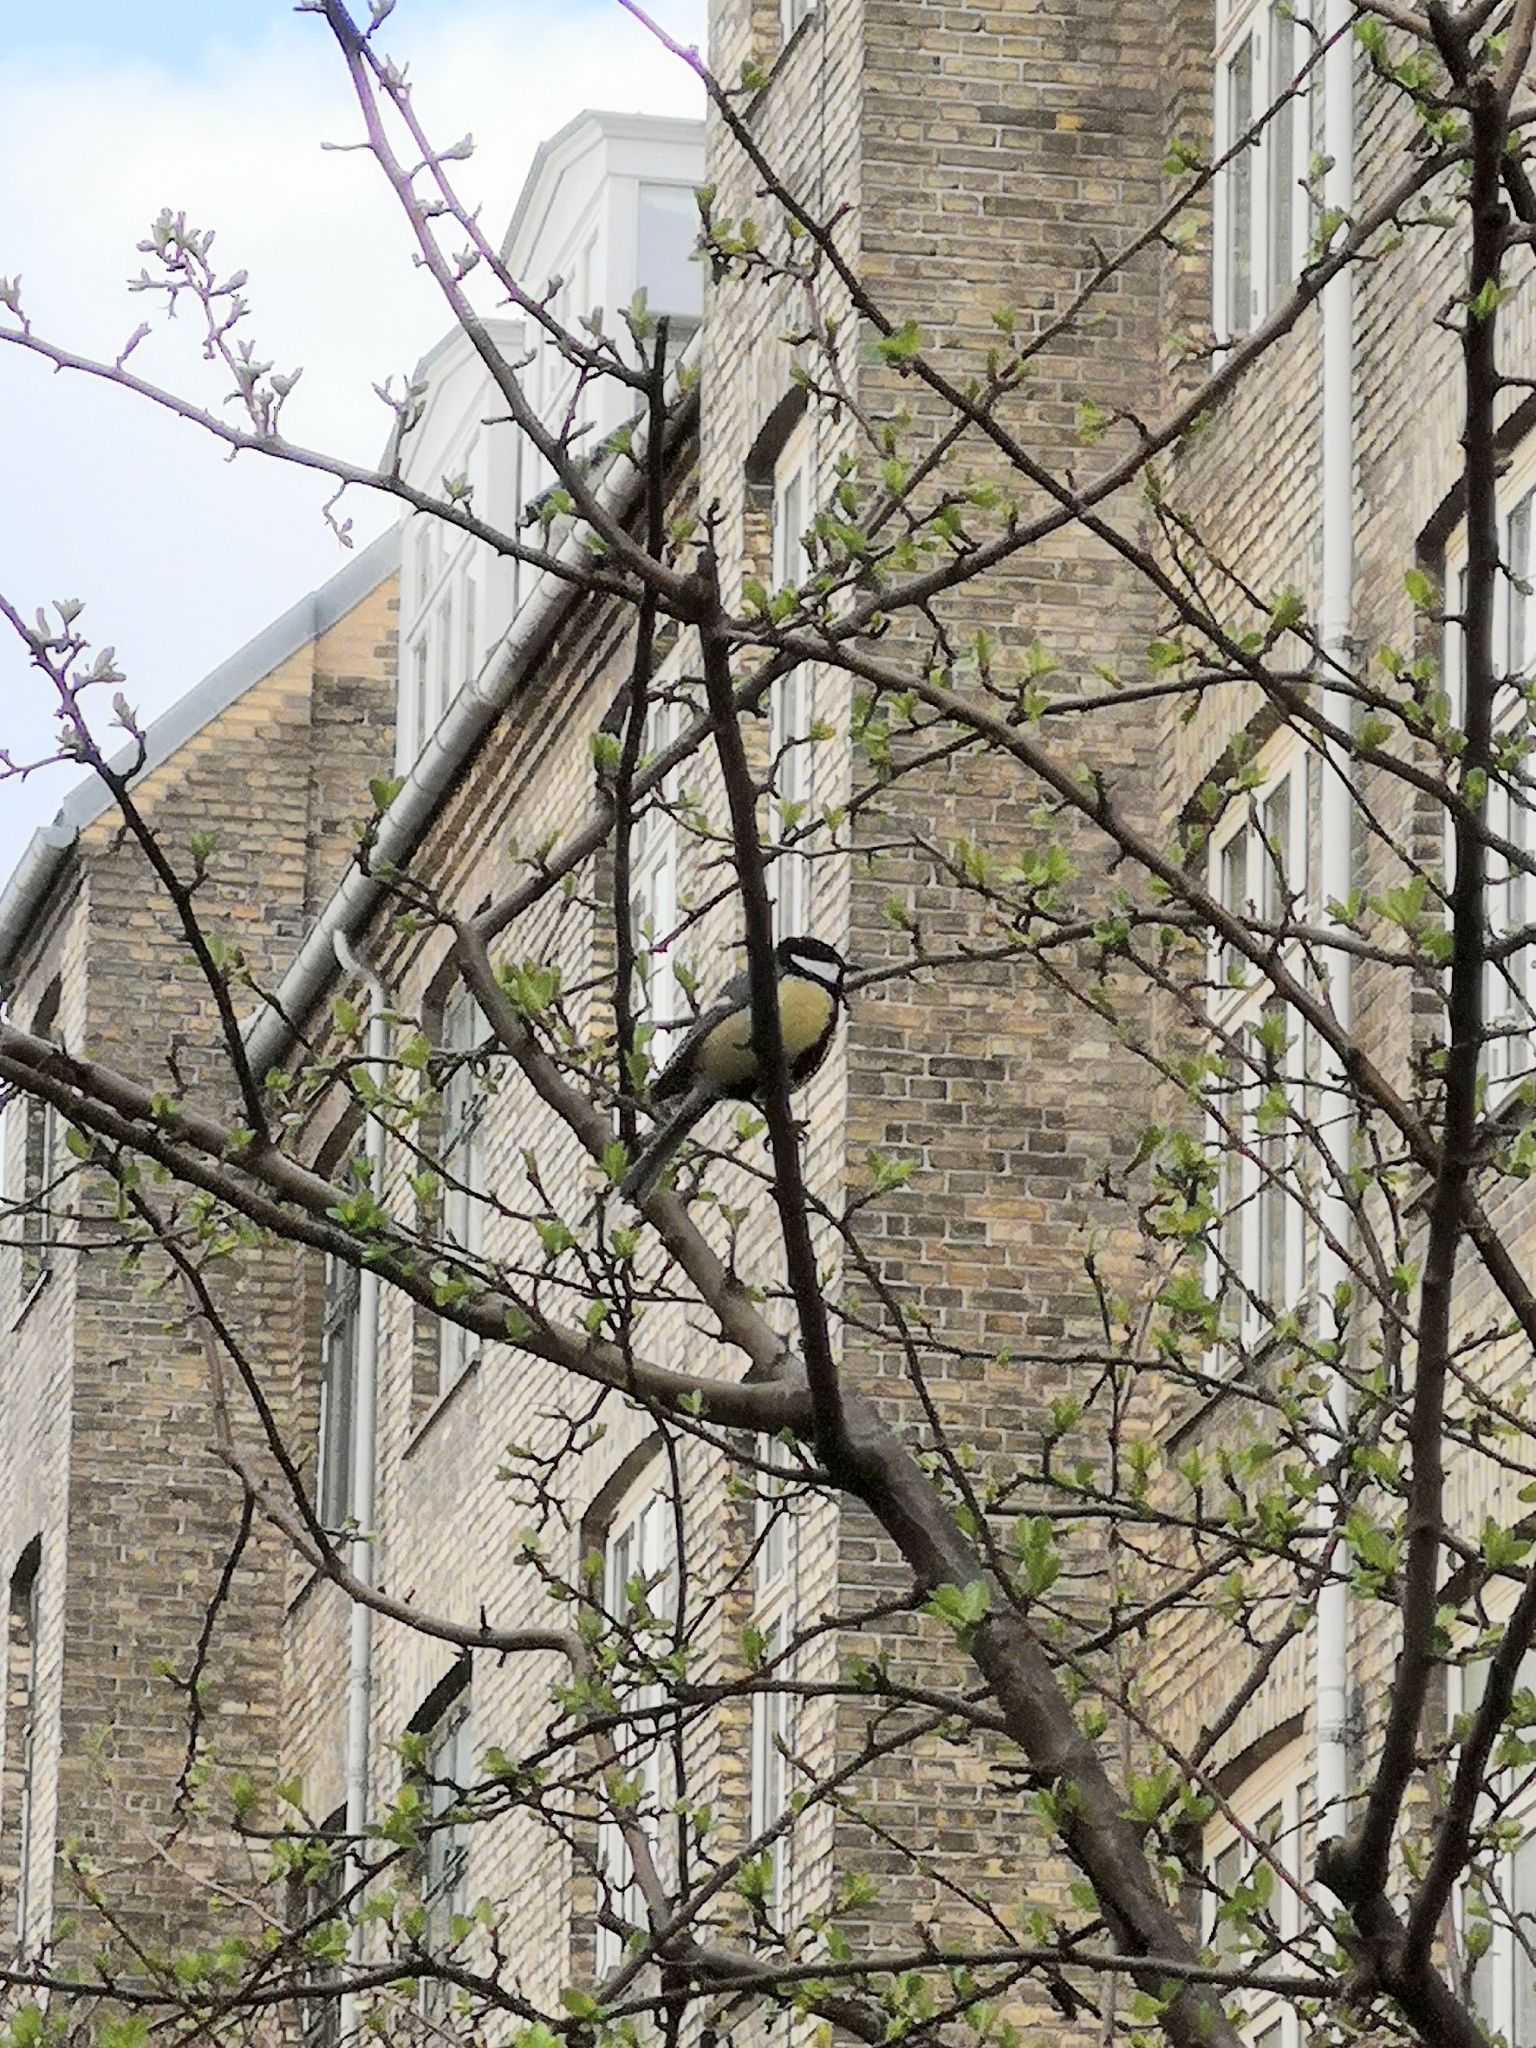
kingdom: Animalia
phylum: Chordata
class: Aves
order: Passeriformes
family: Paridae
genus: Parus
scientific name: Parus major
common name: Great tit
